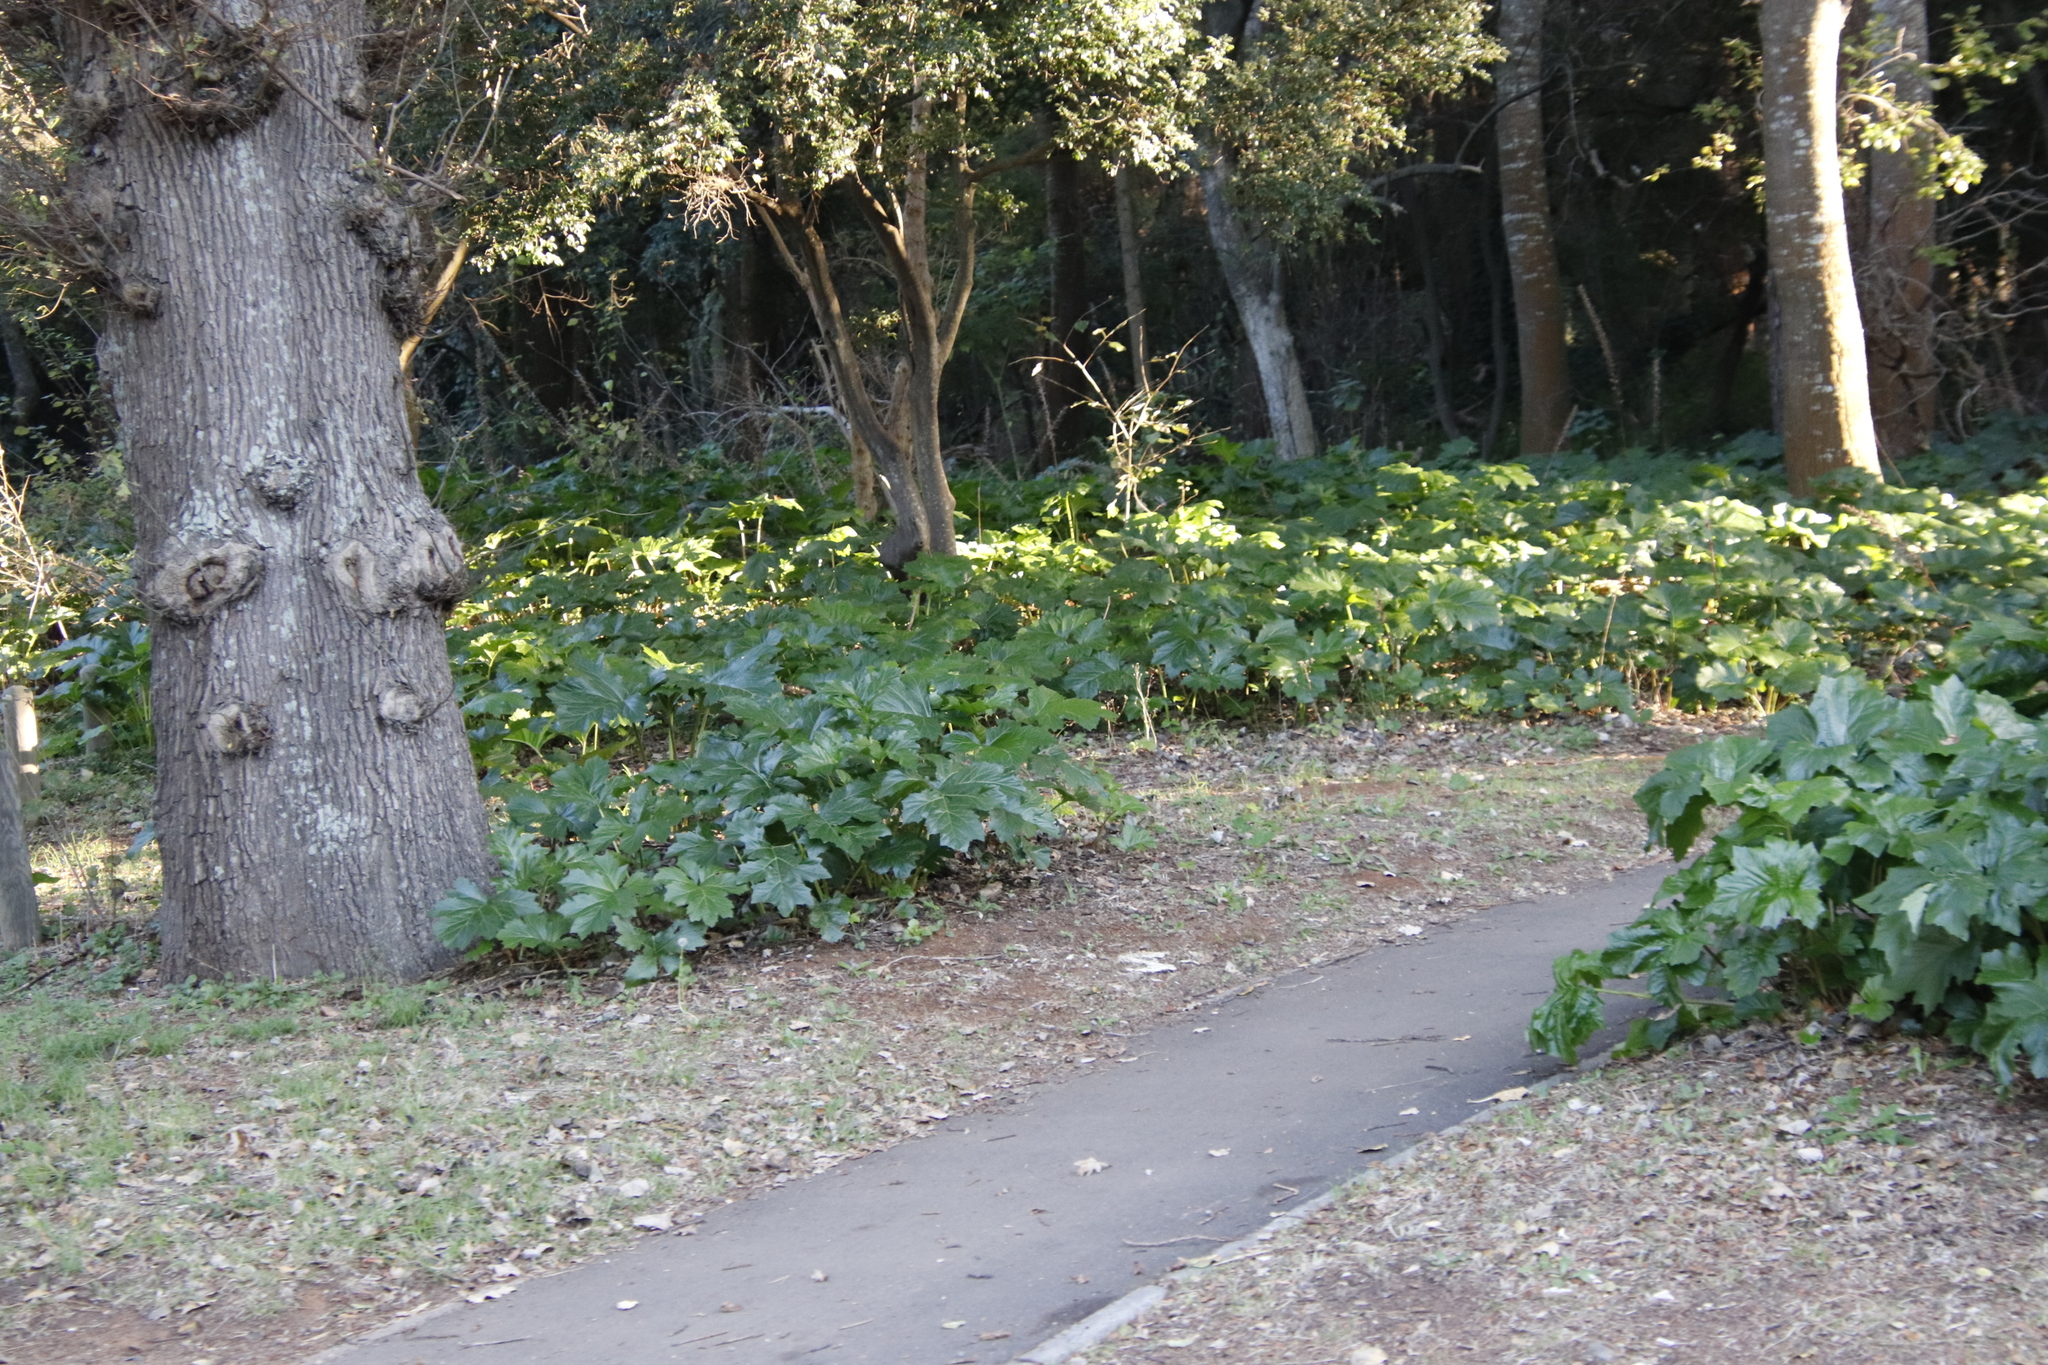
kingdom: Plantae
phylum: Tracheophyta
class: Magnoliopsida
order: Lamiales
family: Acanthaceae
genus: Acanthus
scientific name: Acanthus mollis
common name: Bear's-breech
